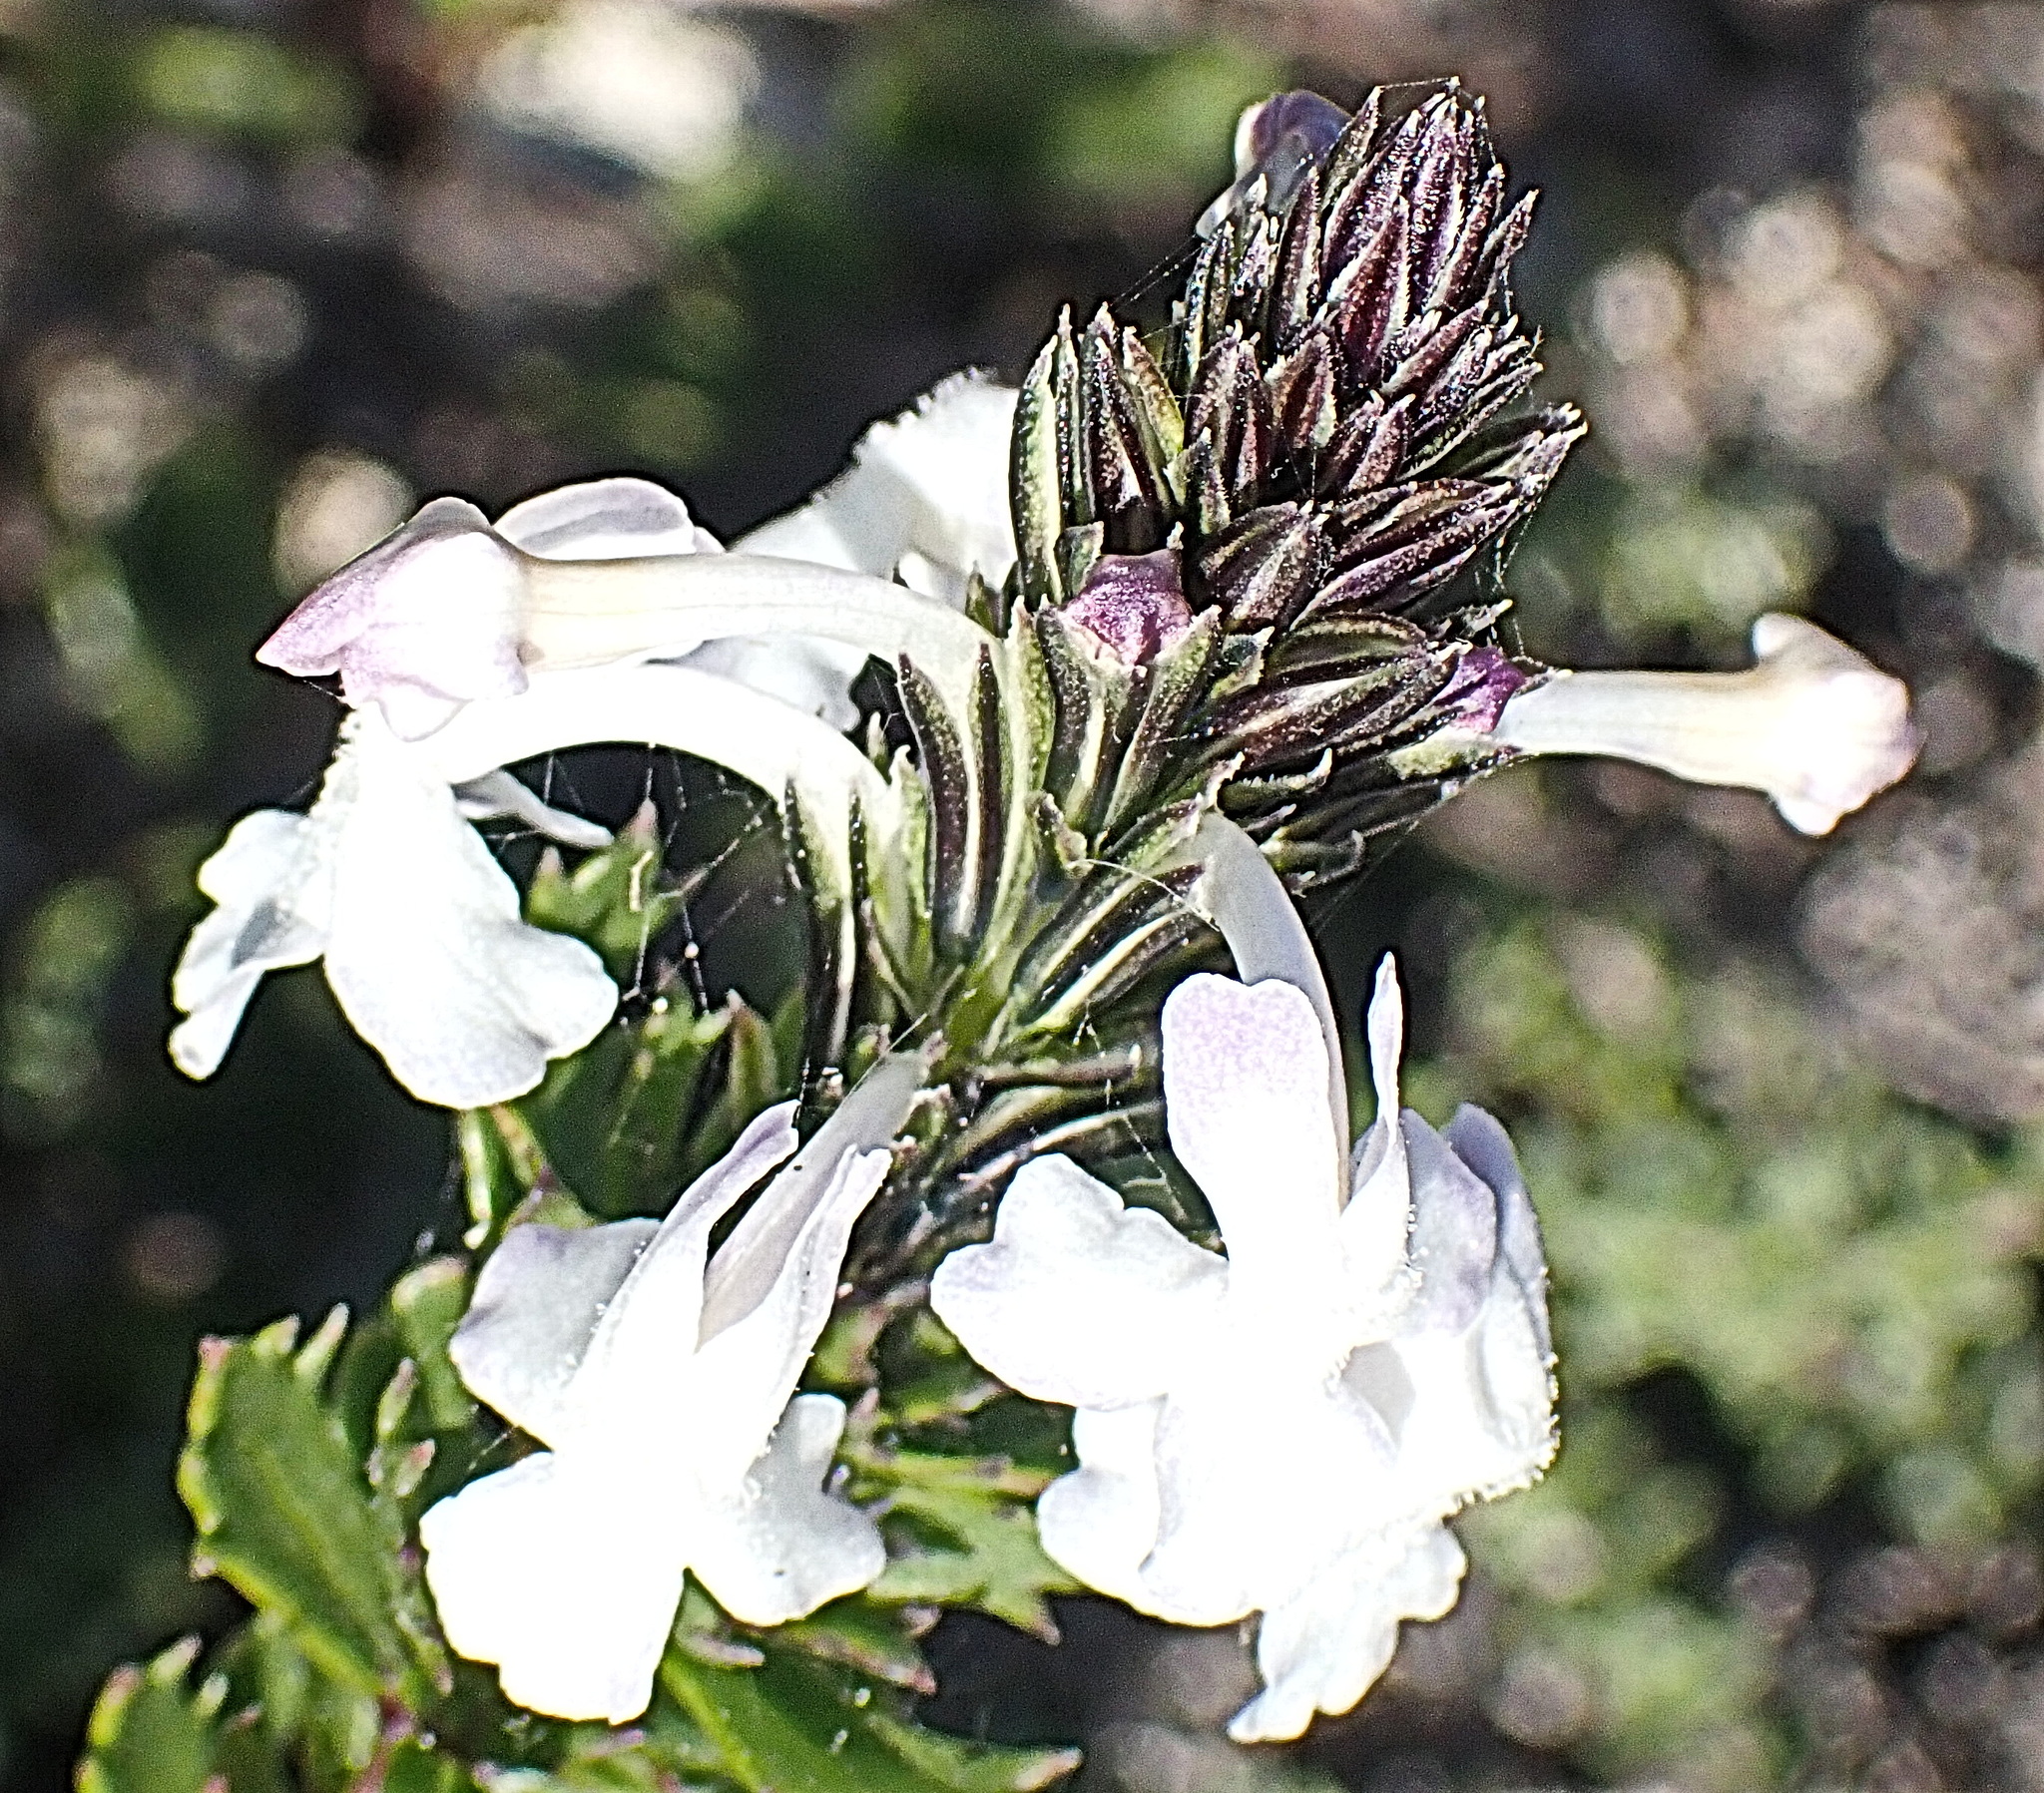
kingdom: Plantae
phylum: Tracheophyta
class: Magnoliopsida
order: Lamiales
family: Verbenaceae
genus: Chascanum
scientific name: Chascanum cernuum
